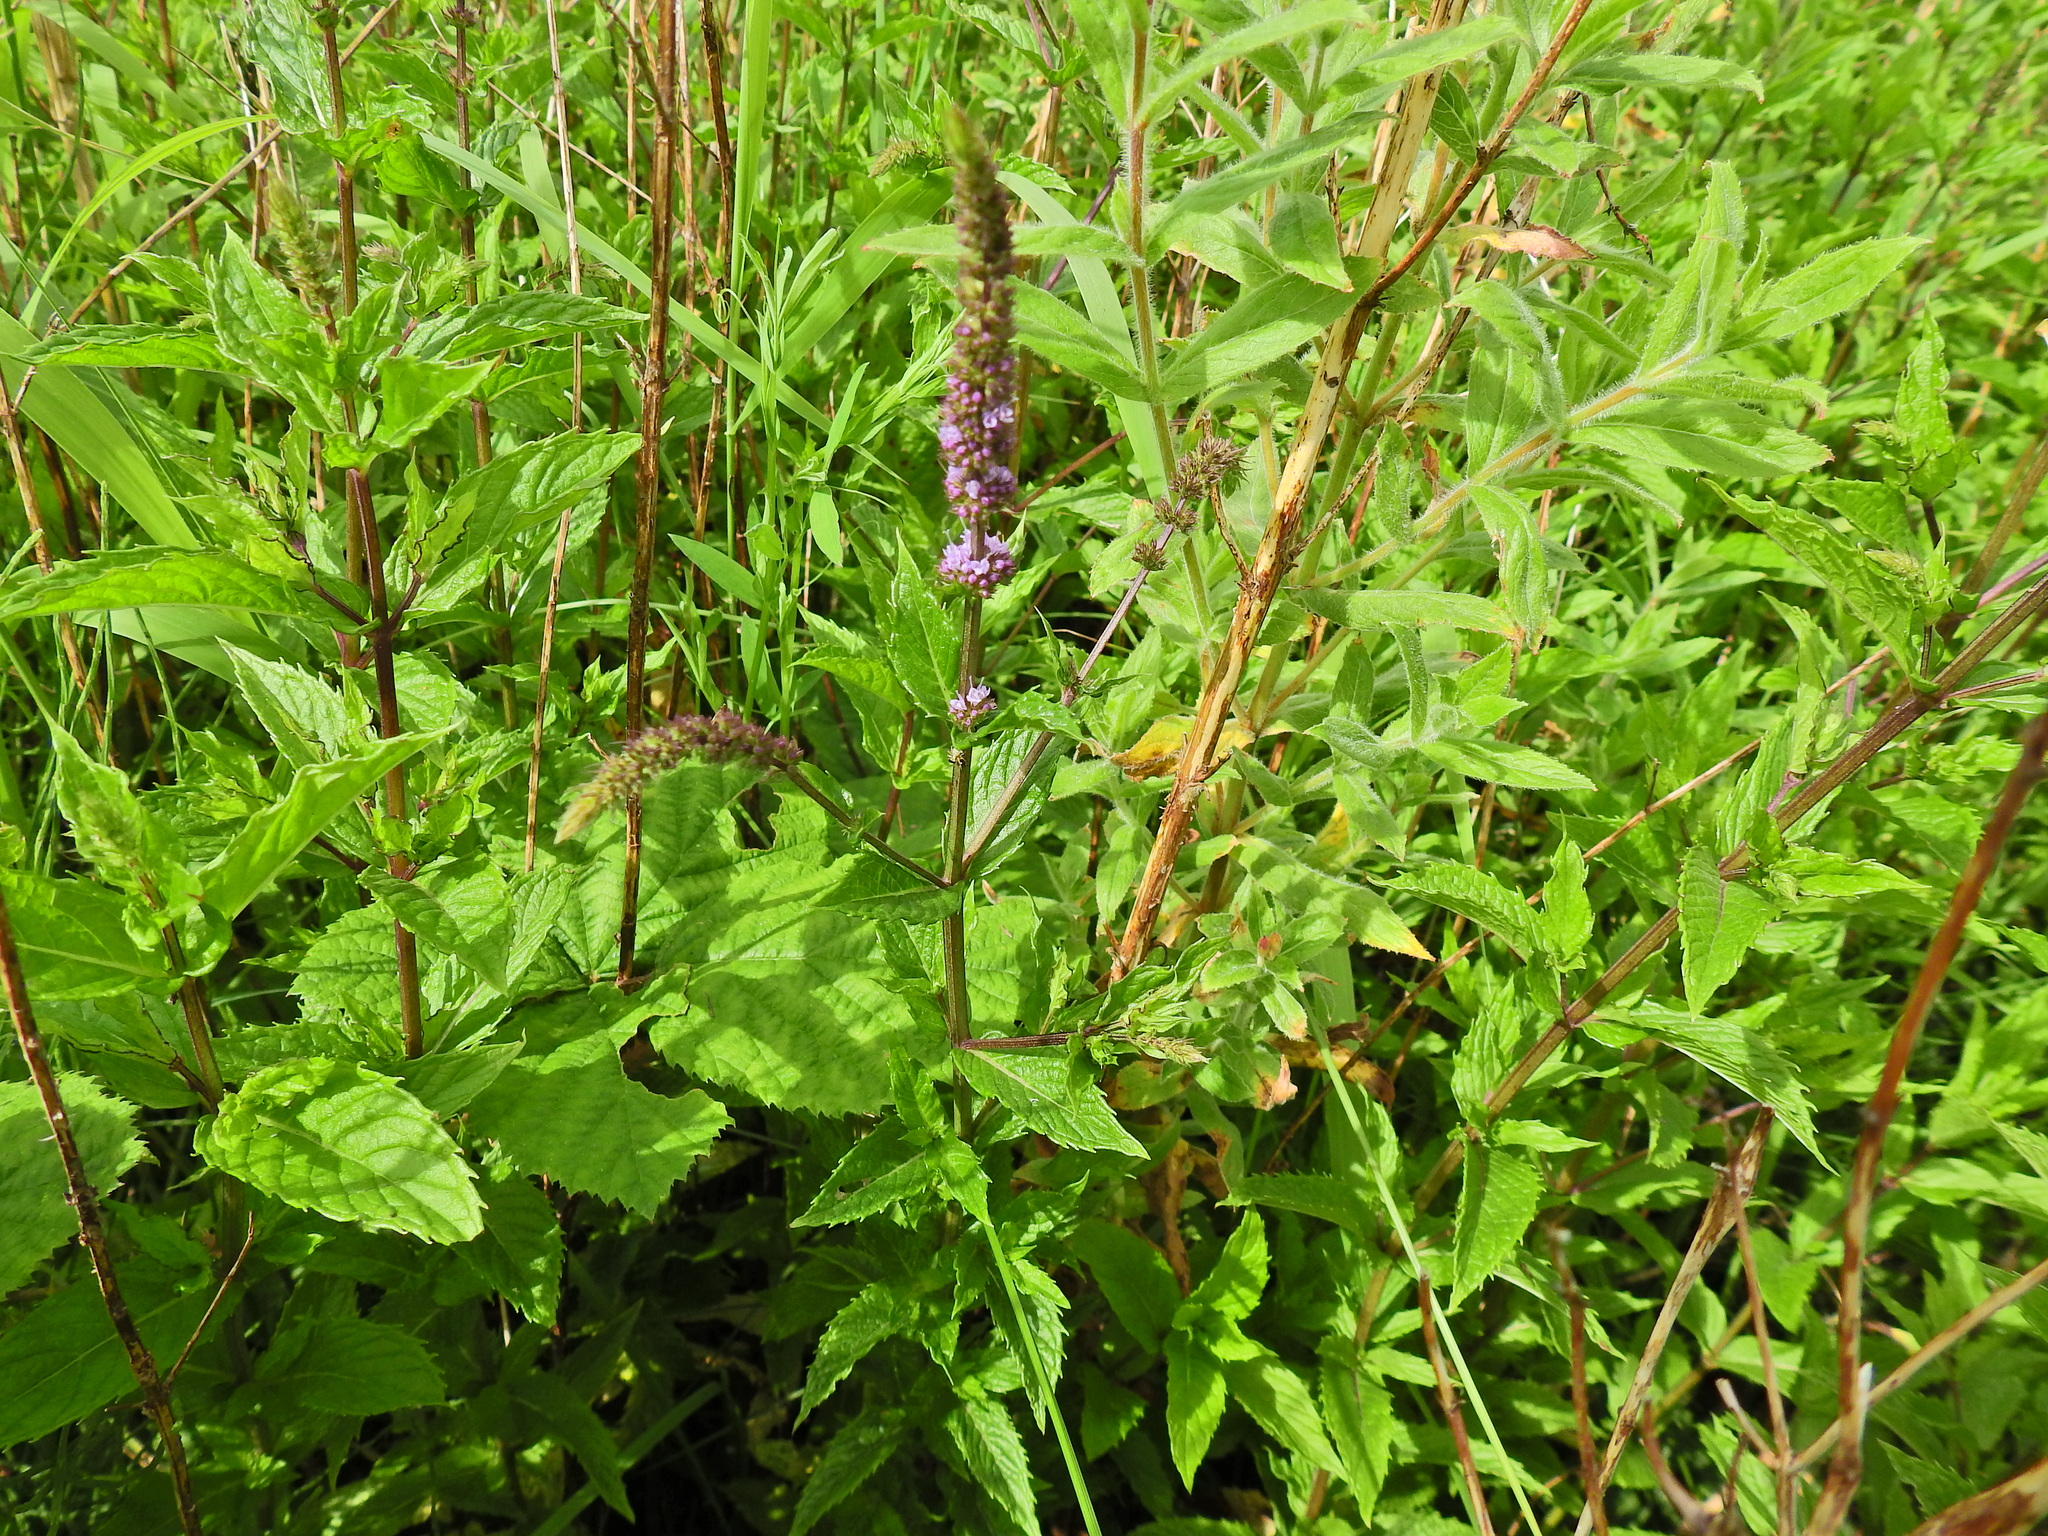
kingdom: Plantae
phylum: Tracheophyta
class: Magnoliopsida
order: Lamiales
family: Lamiaceae
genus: Mentha
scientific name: Mentha spicata
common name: Spearmint
